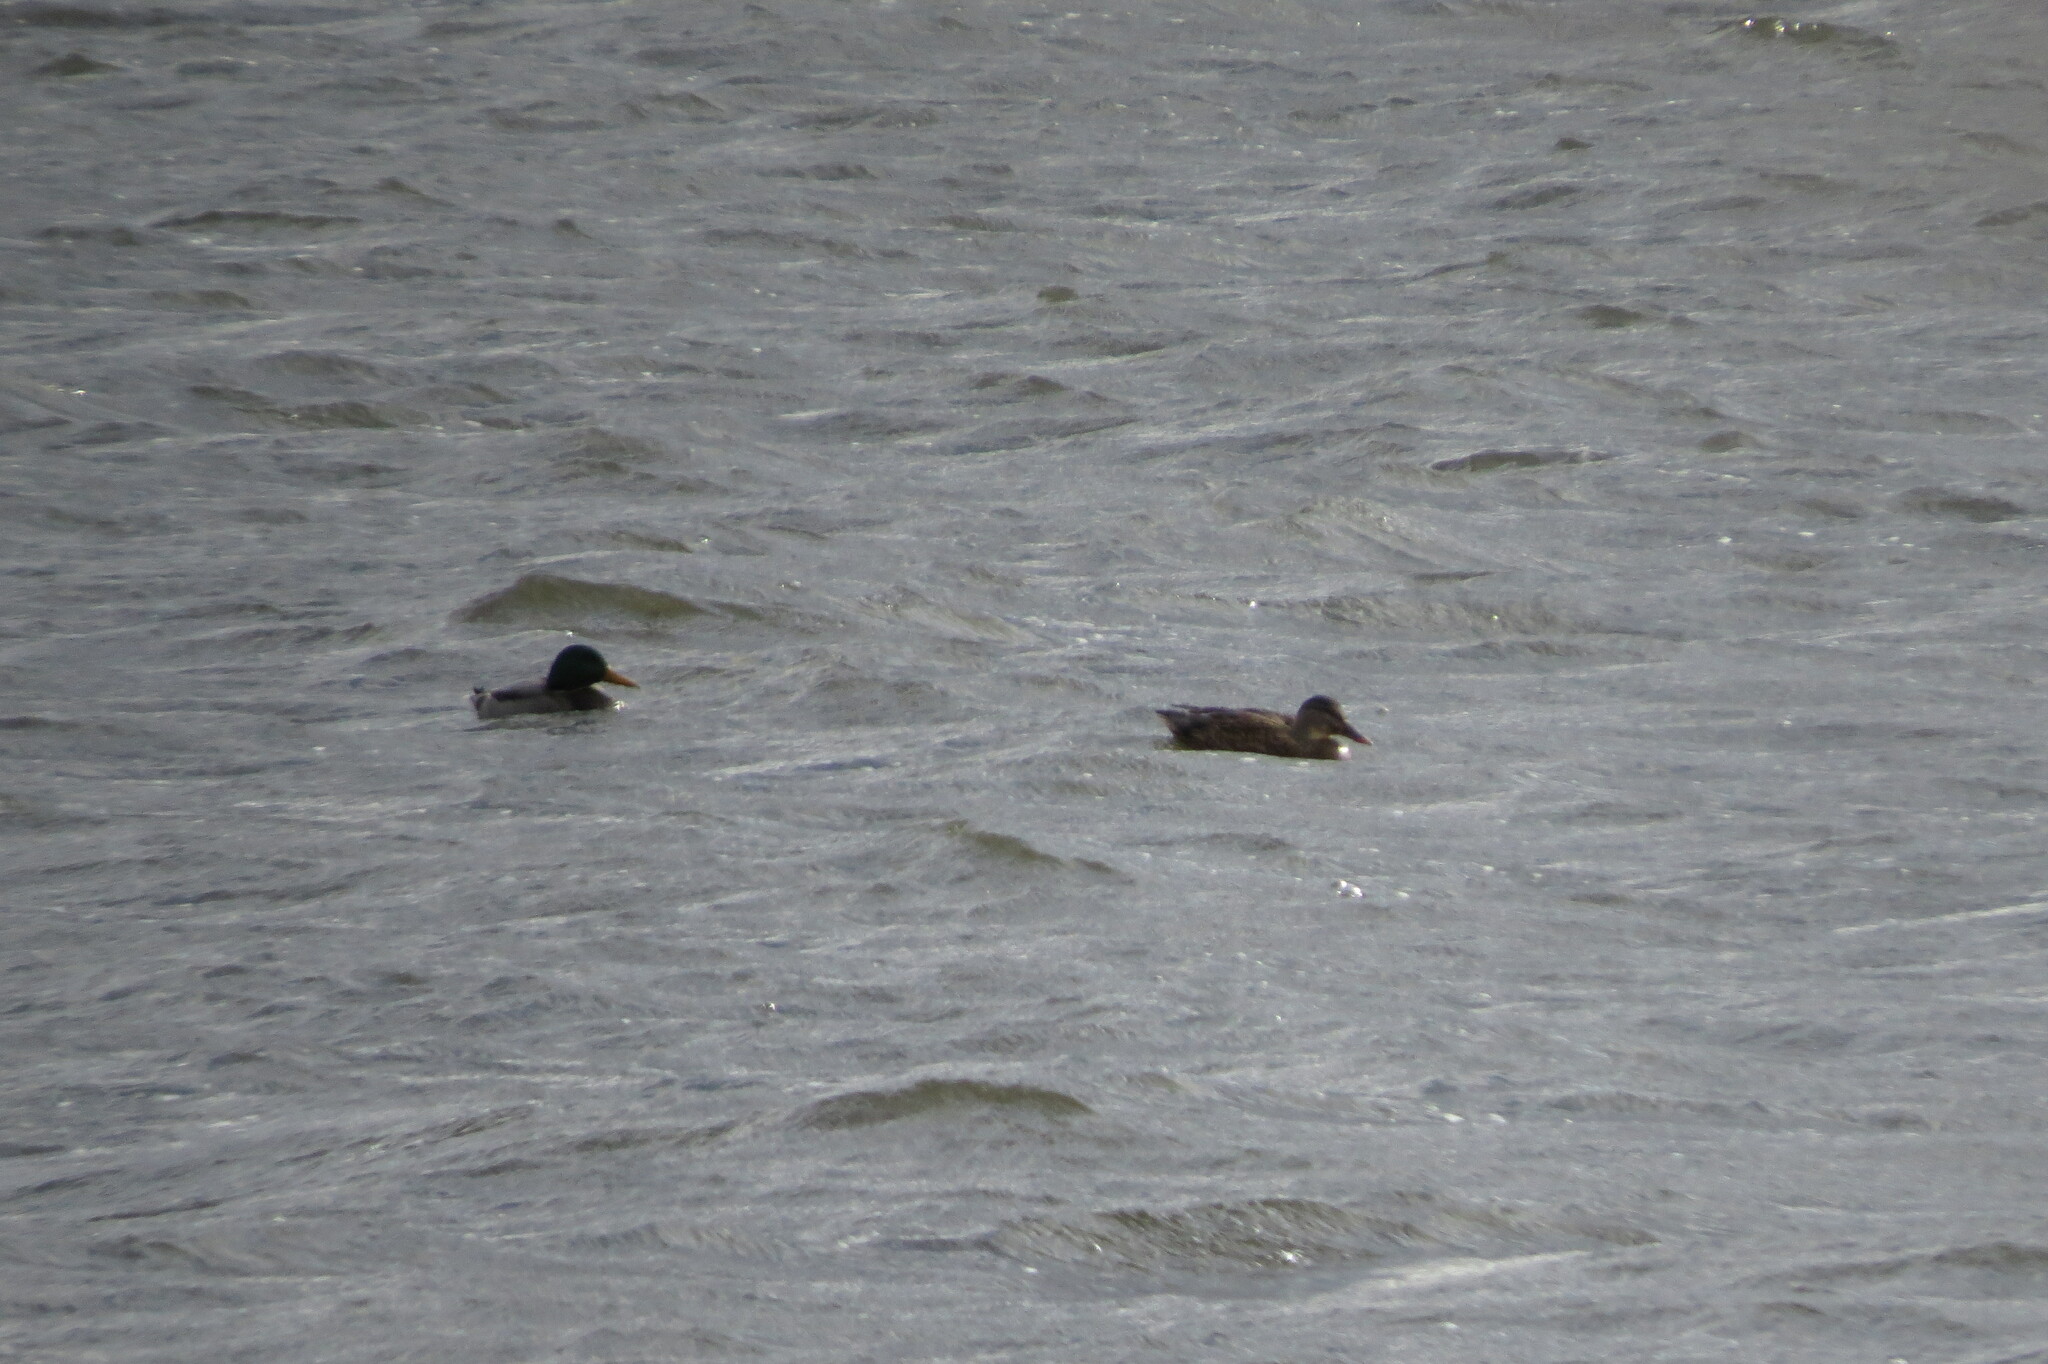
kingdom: Animalia
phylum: Chordata
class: Aves
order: Anseriformes
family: Anatidae
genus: Anas
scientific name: Anas platyrhynchos
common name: Mallard
